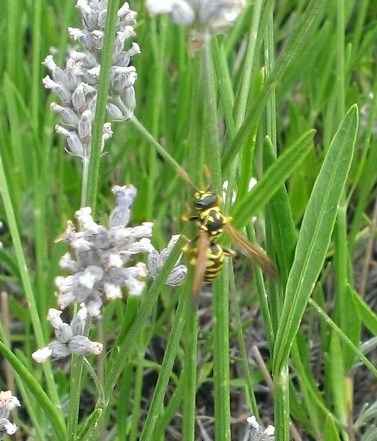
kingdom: Animalia
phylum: Arthropoda
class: Insecta
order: Hymenoptera
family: Eumenidae
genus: Polistes
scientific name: Polistes dominula
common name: Paper wasp
